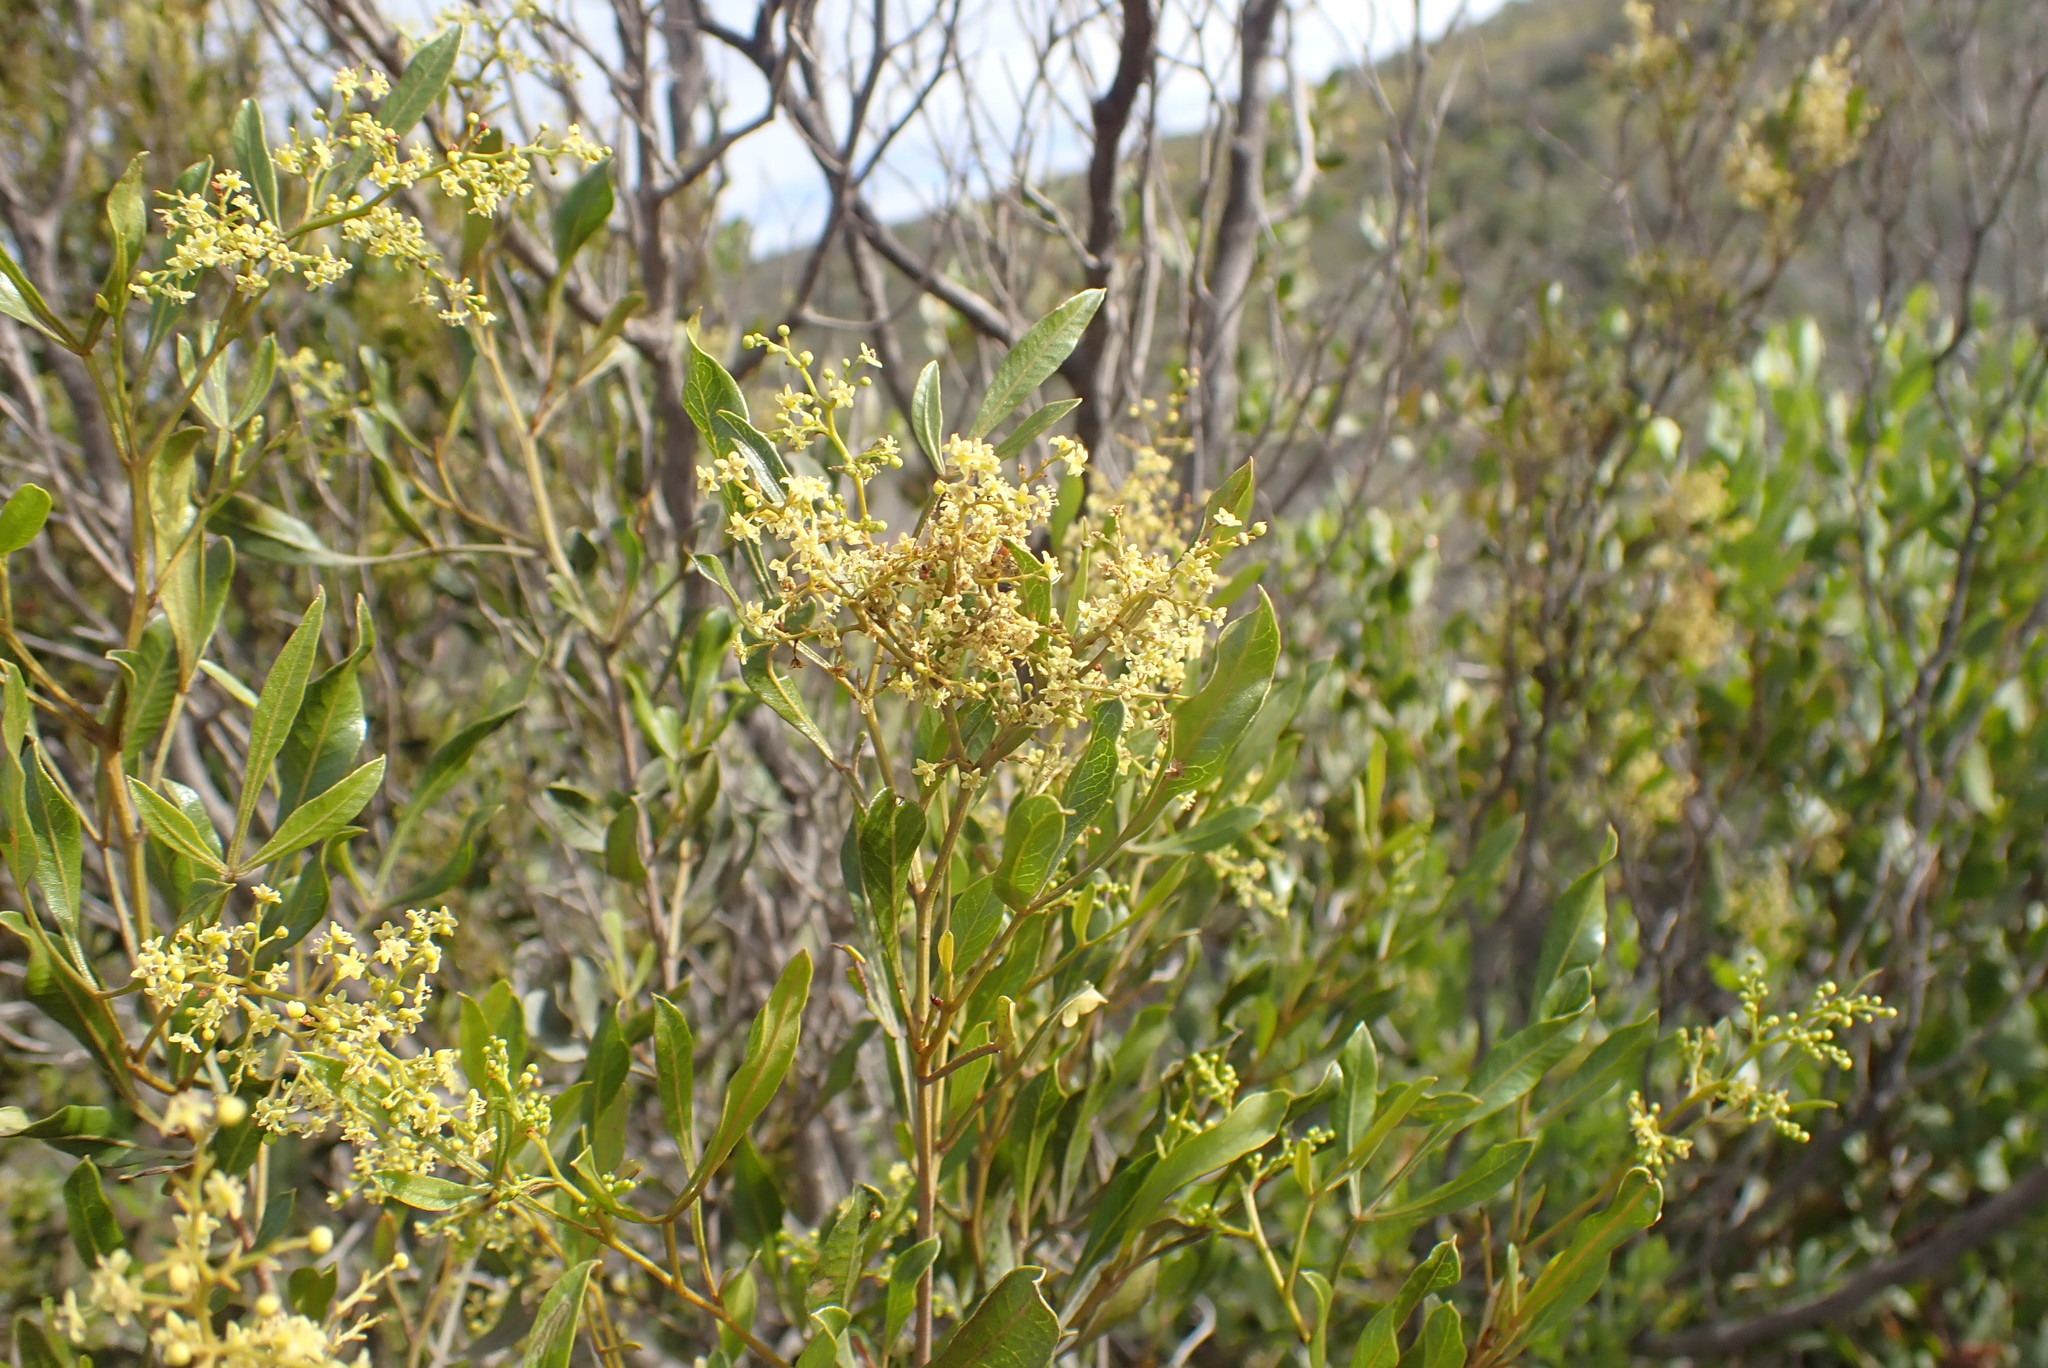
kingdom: Plantae
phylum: Tracheophyta
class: Magnoliopsida
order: Sapindales
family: Sapindaceae
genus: Dodonaea
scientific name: Dodonaea viscosa
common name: Hopbush
